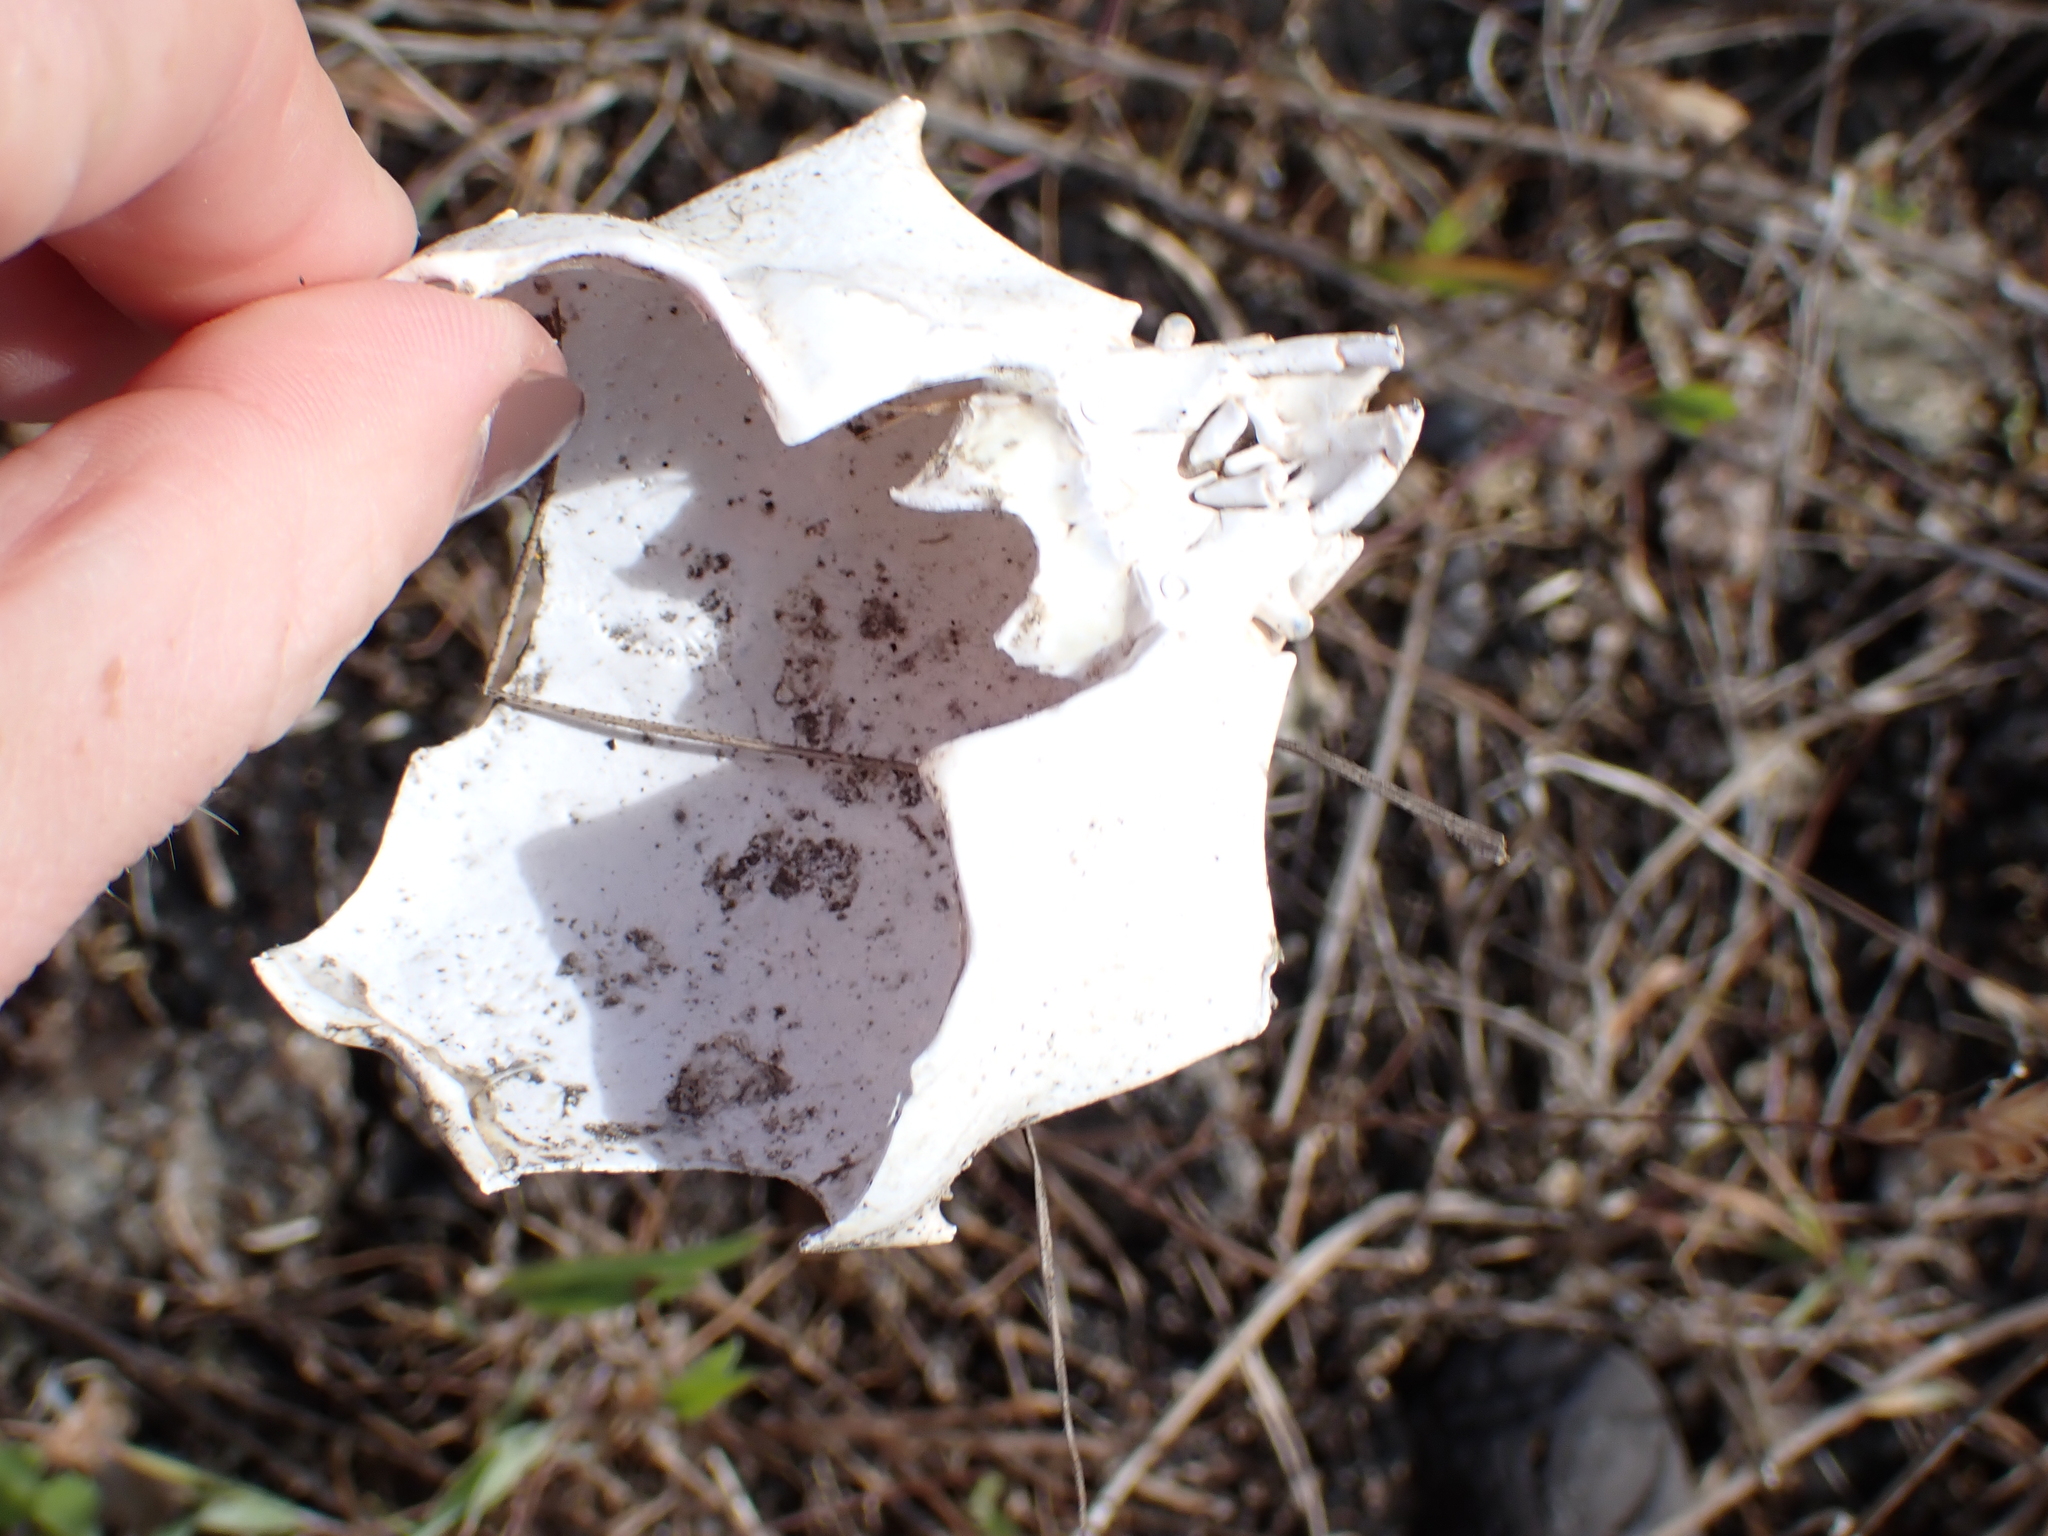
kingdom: Animalia
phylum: Arthropoda
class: Malacostraca
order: Decapoda
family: Epialtidae
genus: Pugettia
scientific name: Pugettia producta
